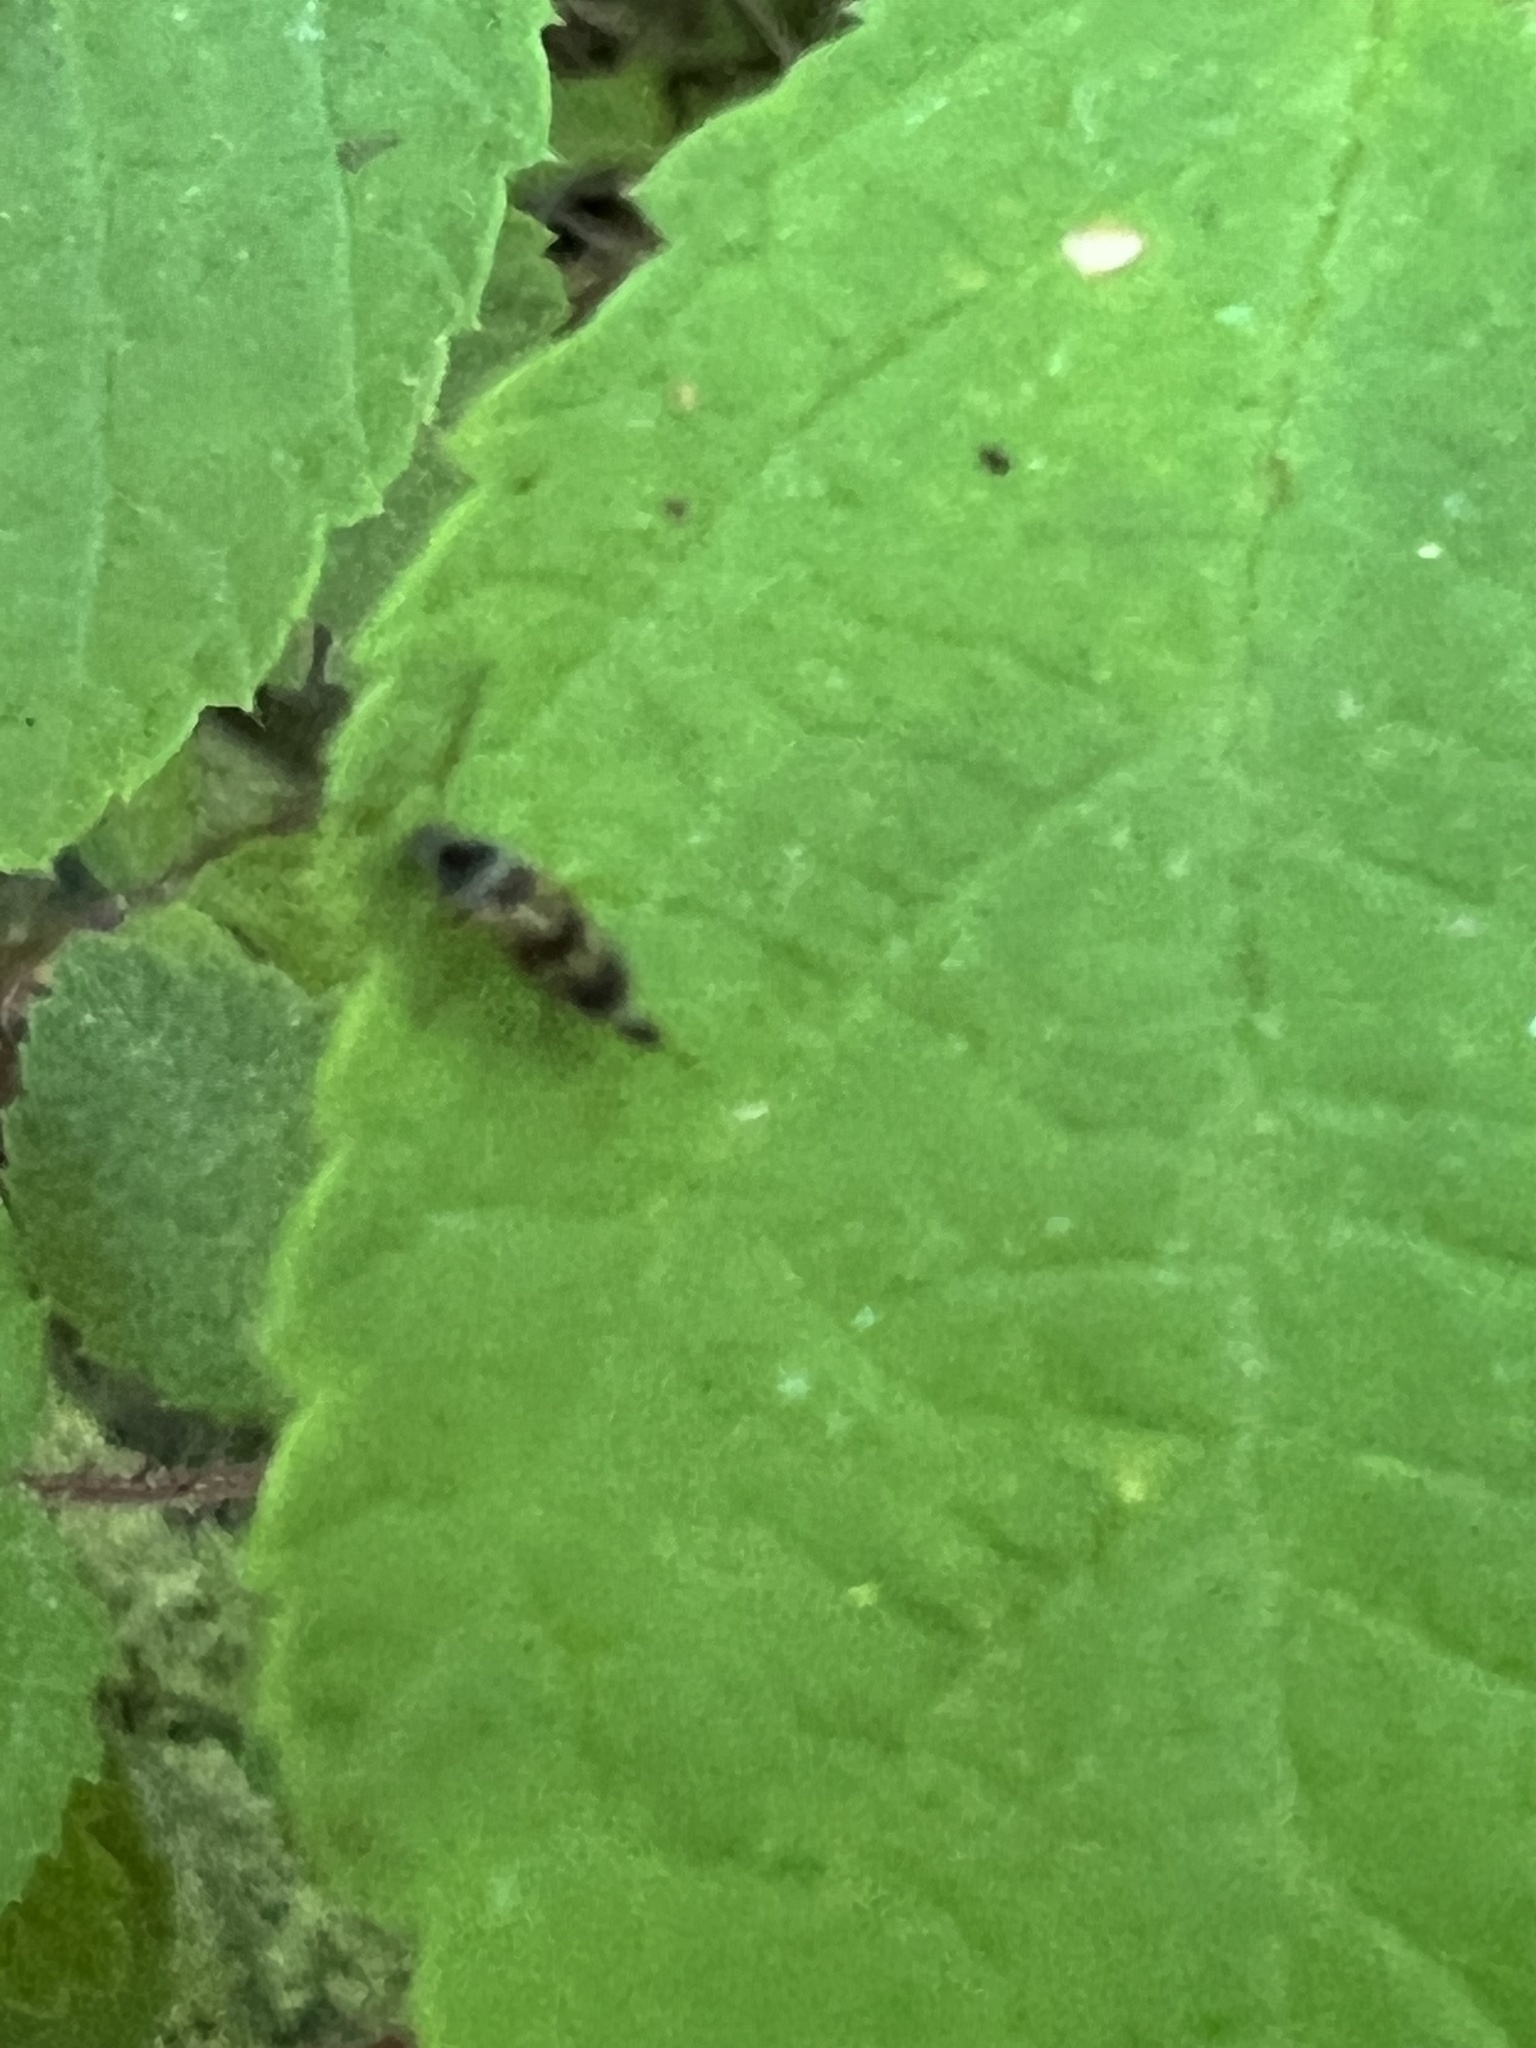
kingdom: Animalia
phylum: Arthropoda
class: Insecta
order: Coleoptera
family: Mordellidae
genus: Falsomordellistena
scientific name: Falsomordellistena bihamata
